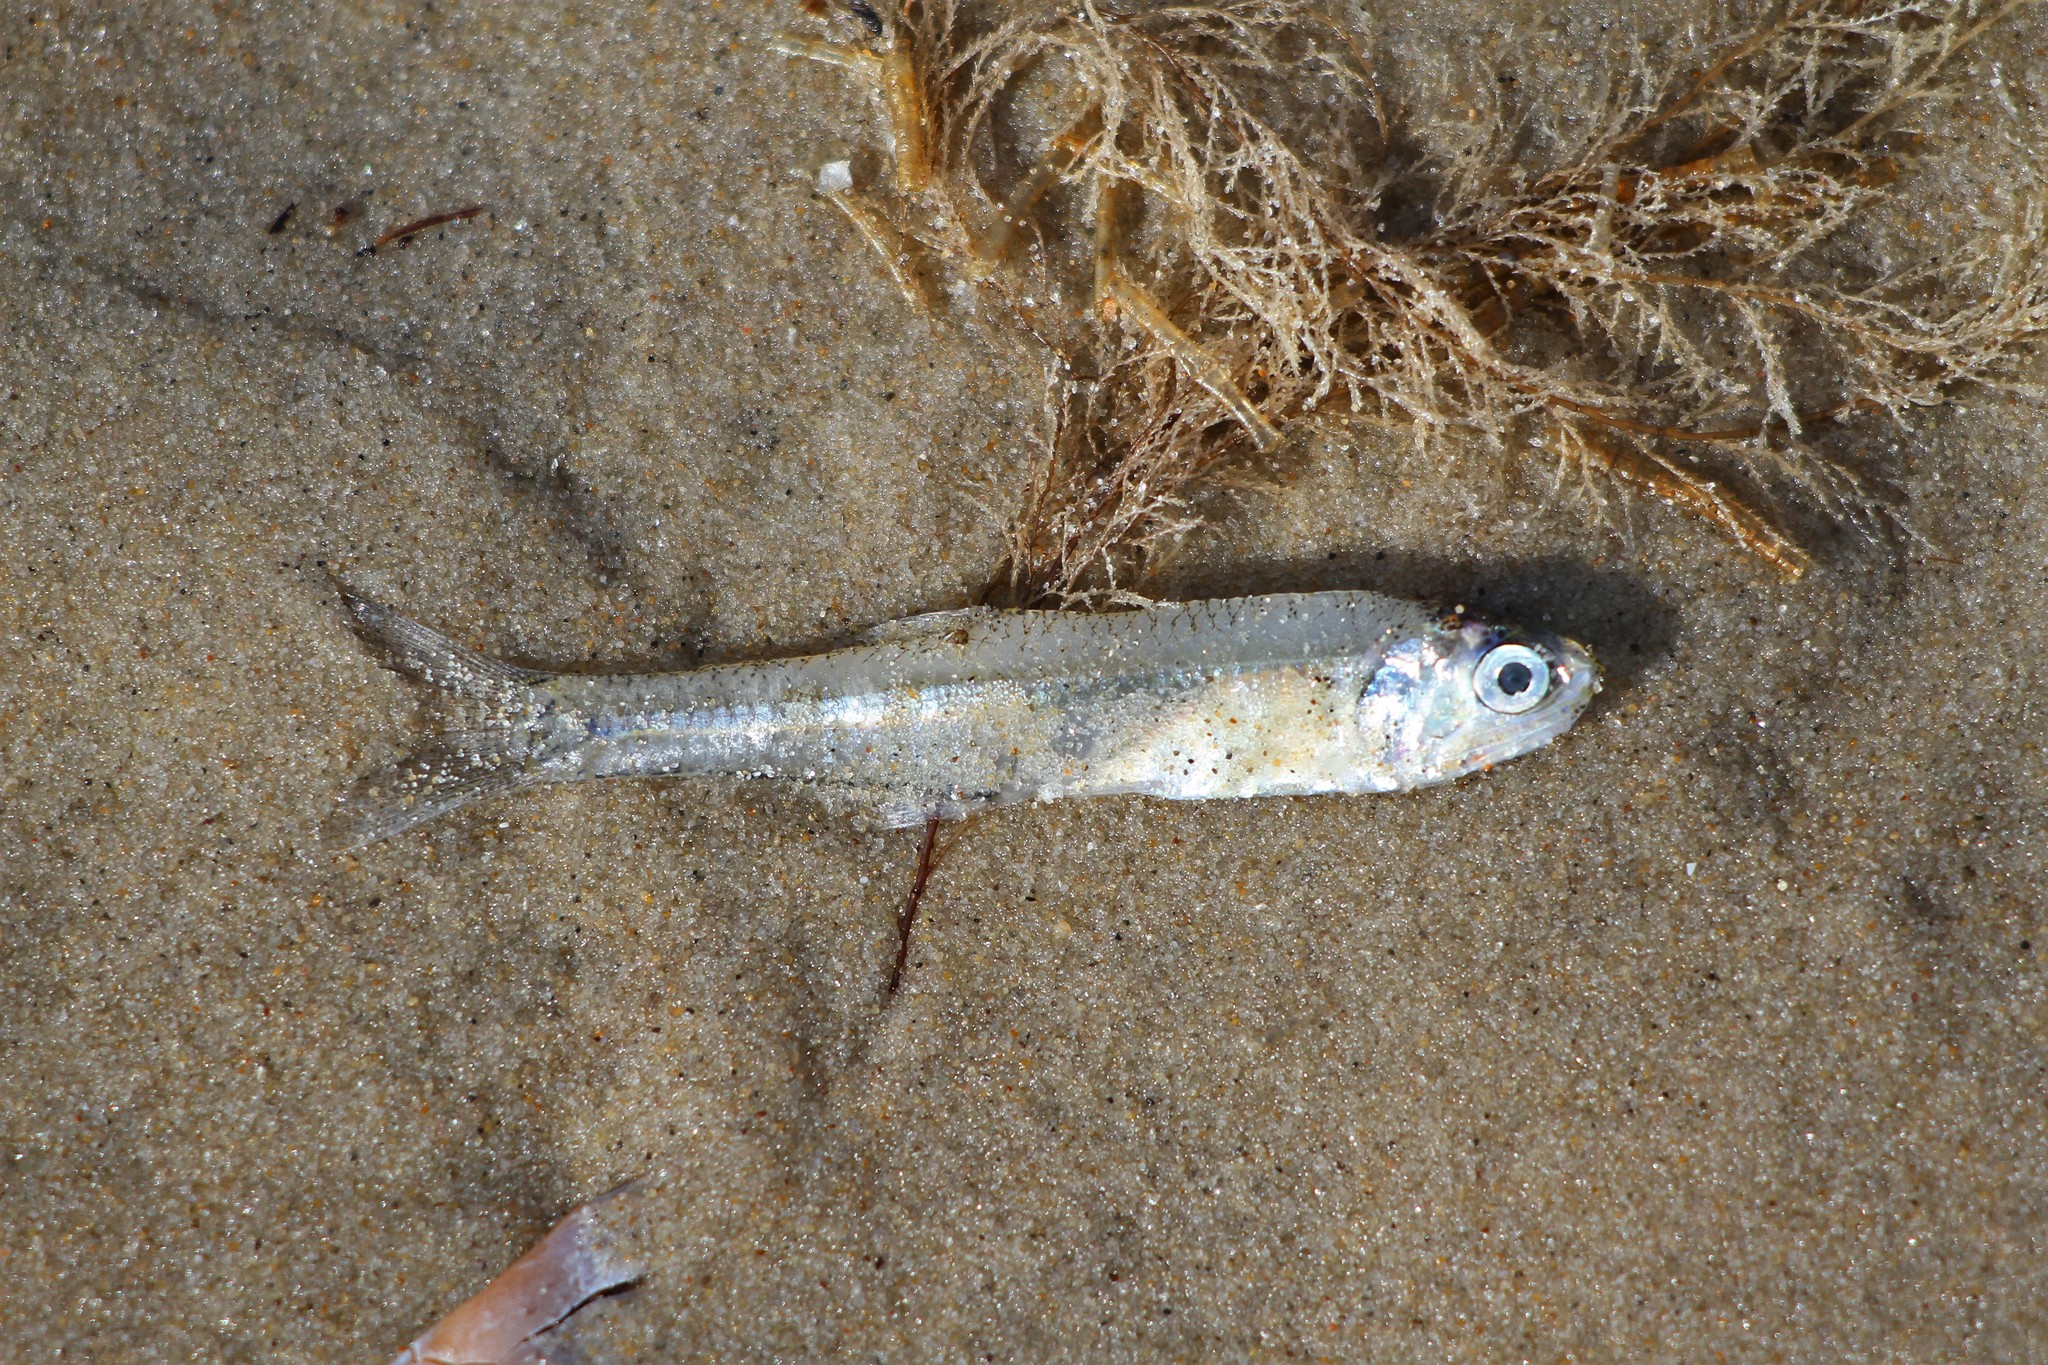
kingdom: Animalia
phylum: Chordata
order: Clupeiformes
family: Engraulidae
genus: Anchoa
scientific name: Anchoa mitchilli
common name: Bay anchovy
